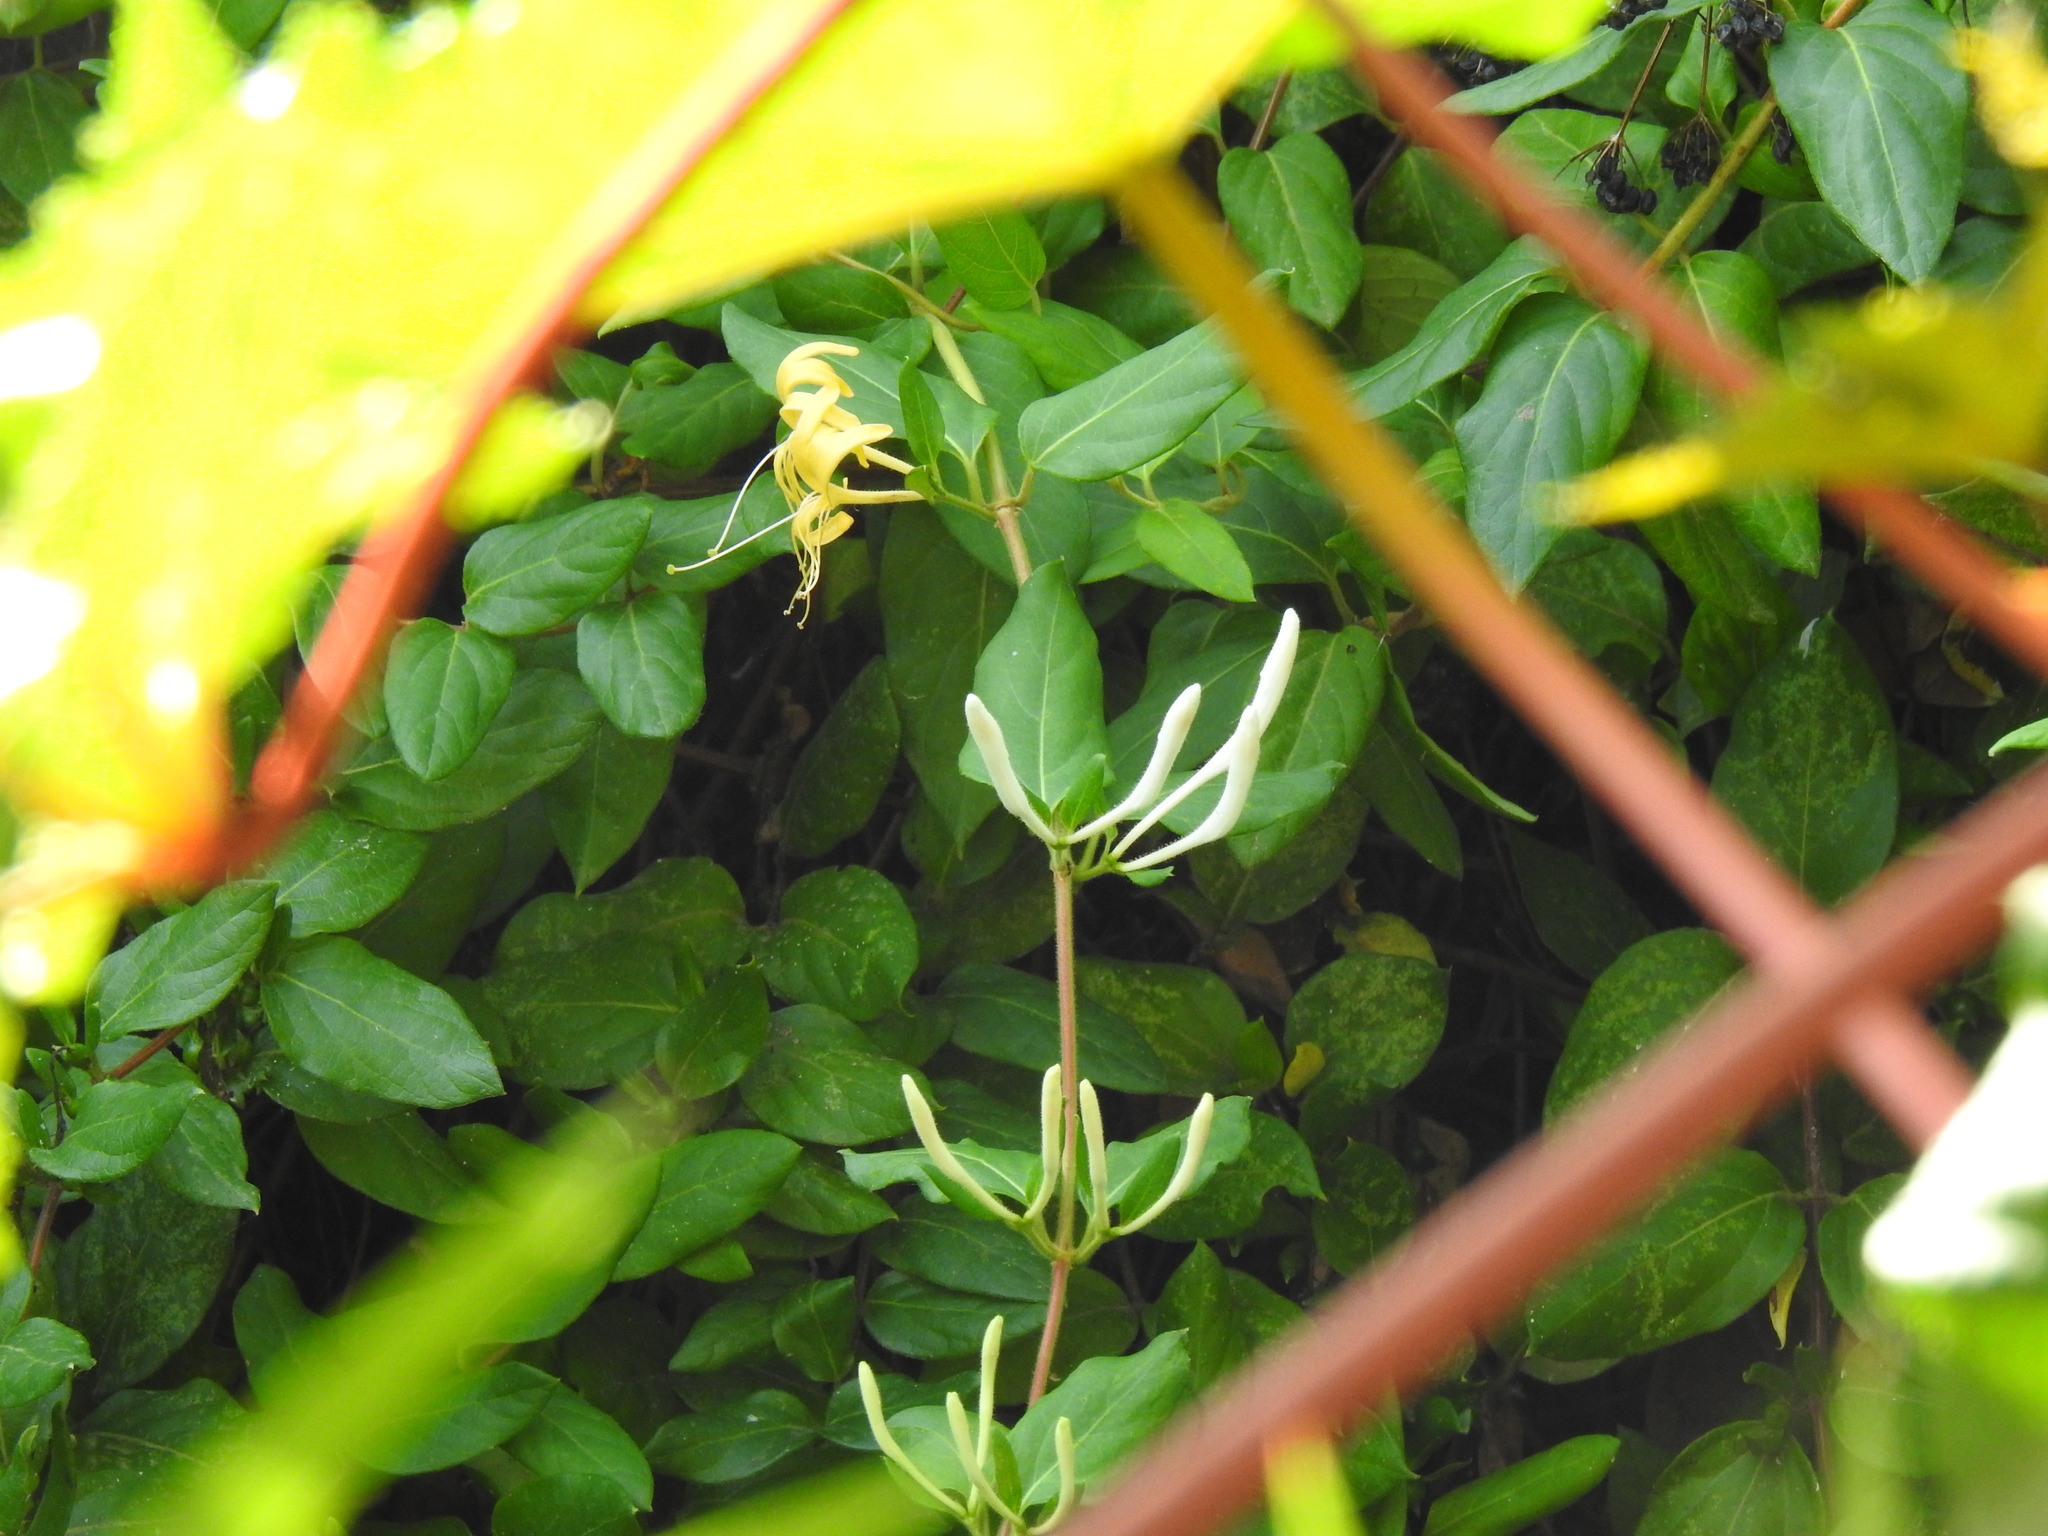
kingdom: Plantae
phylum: Tracheophyta
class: Magnoliopsida
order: Dipsacales
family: Caprifoliaceae
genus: Lonicera
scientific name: Lonicera japonica
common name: Japanese honeysuckle
